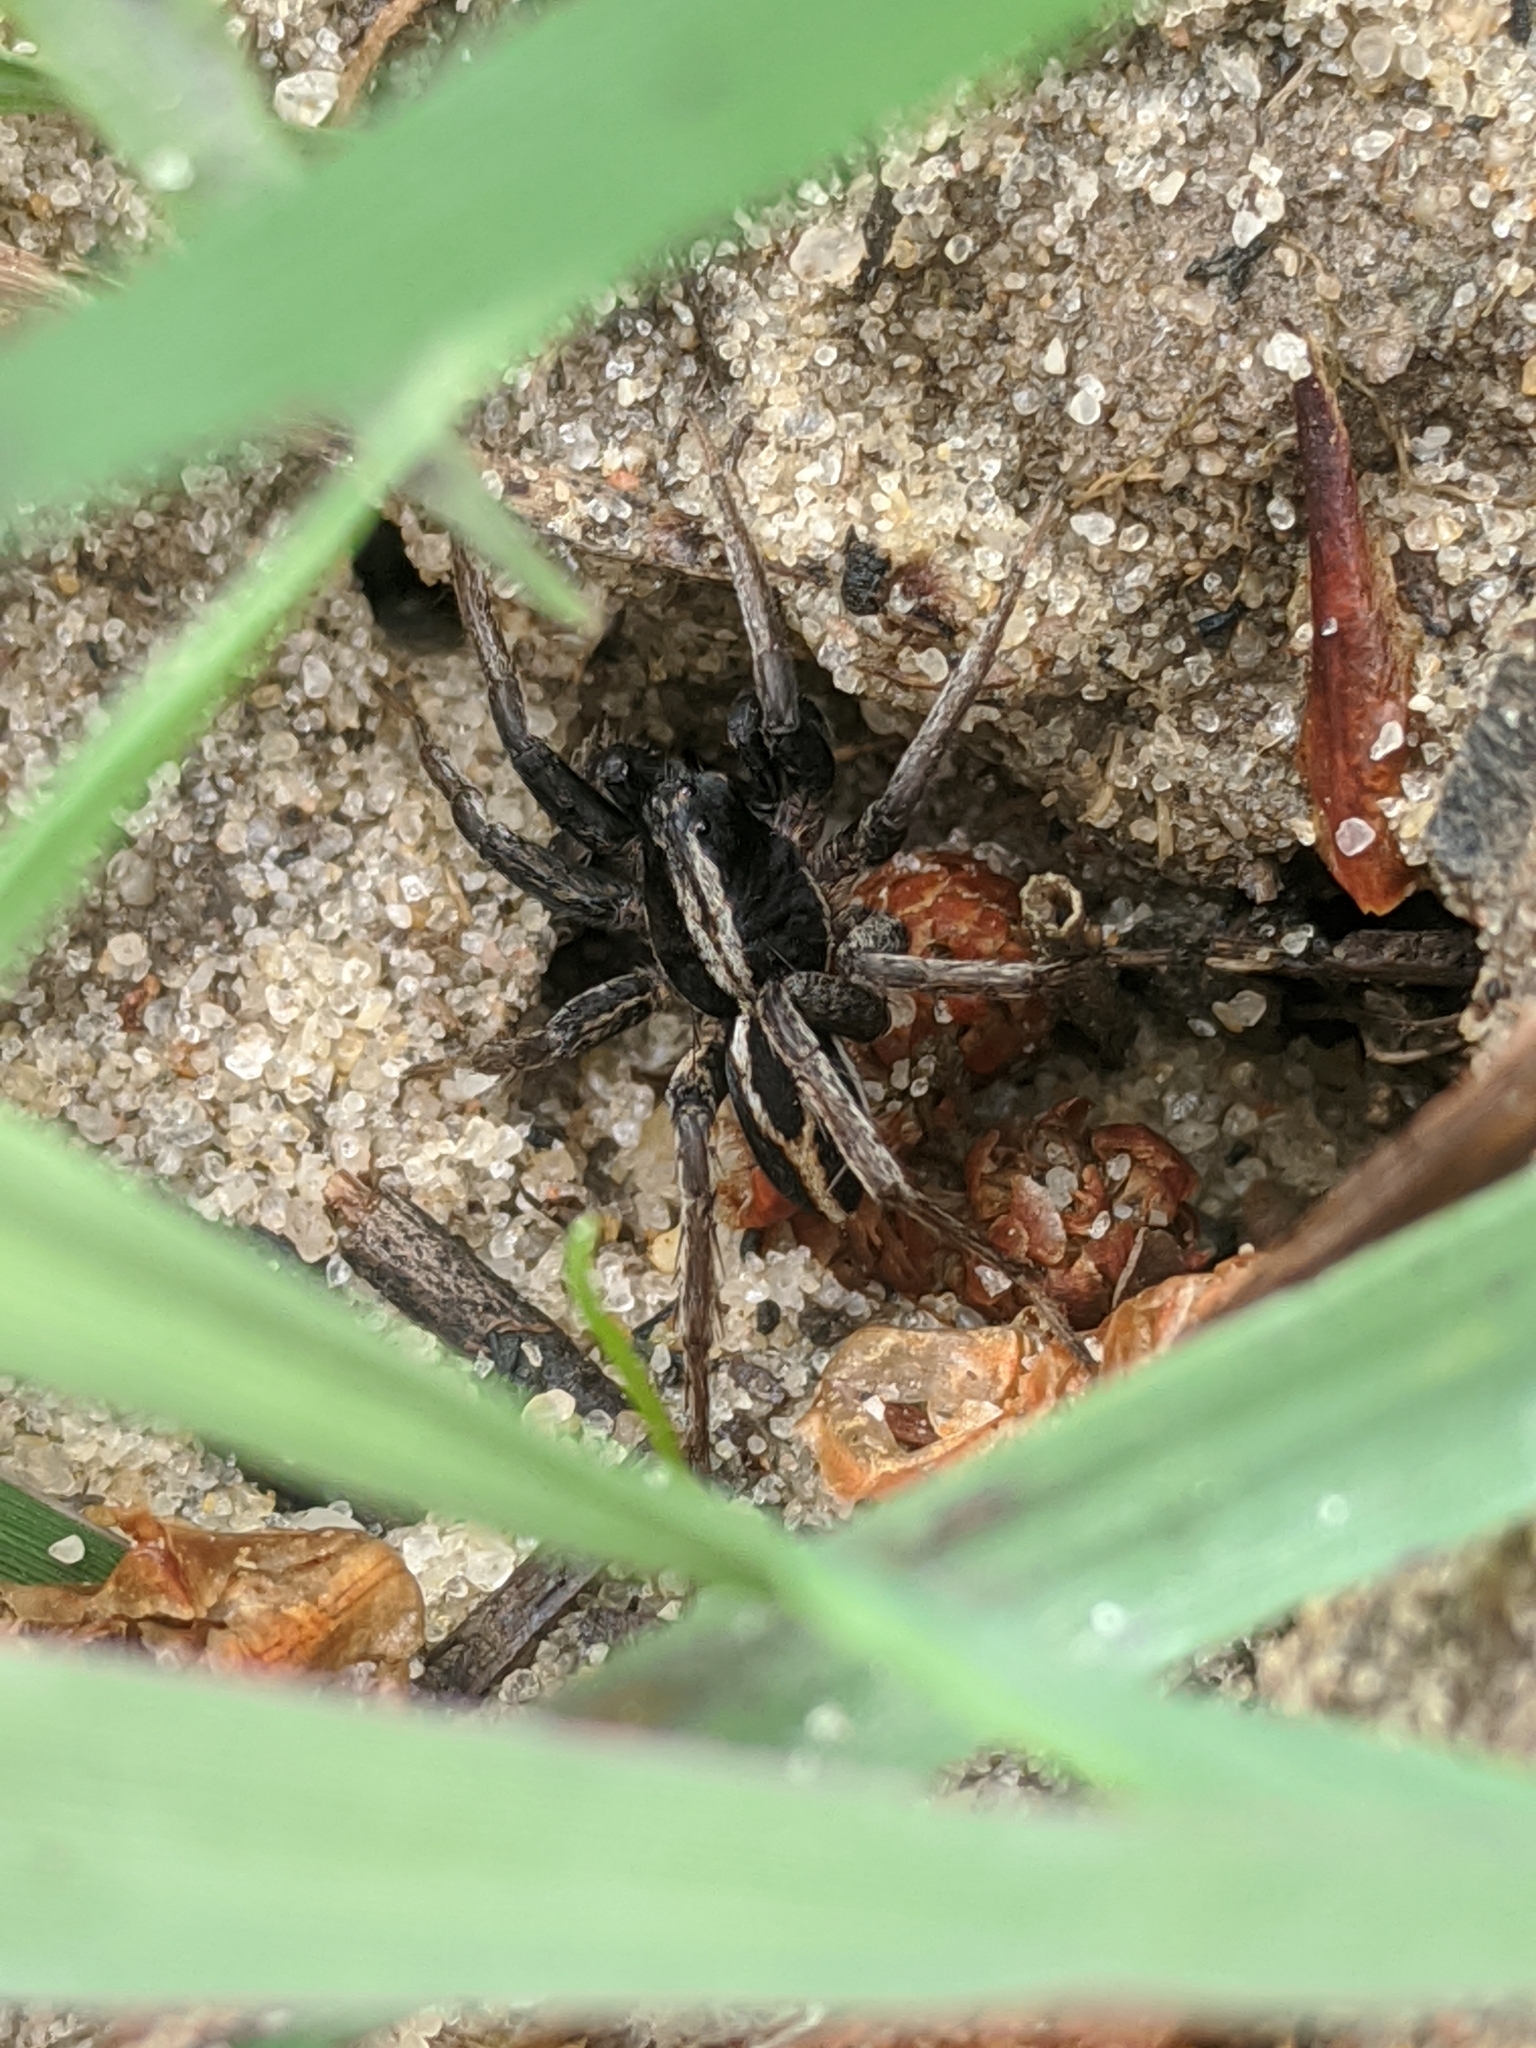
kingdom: Animalia
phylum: Arthropoda
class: Arachnida
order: Araneae
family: Lycosidae
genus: Alopecosa
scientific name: Alopecosa albofasciata
